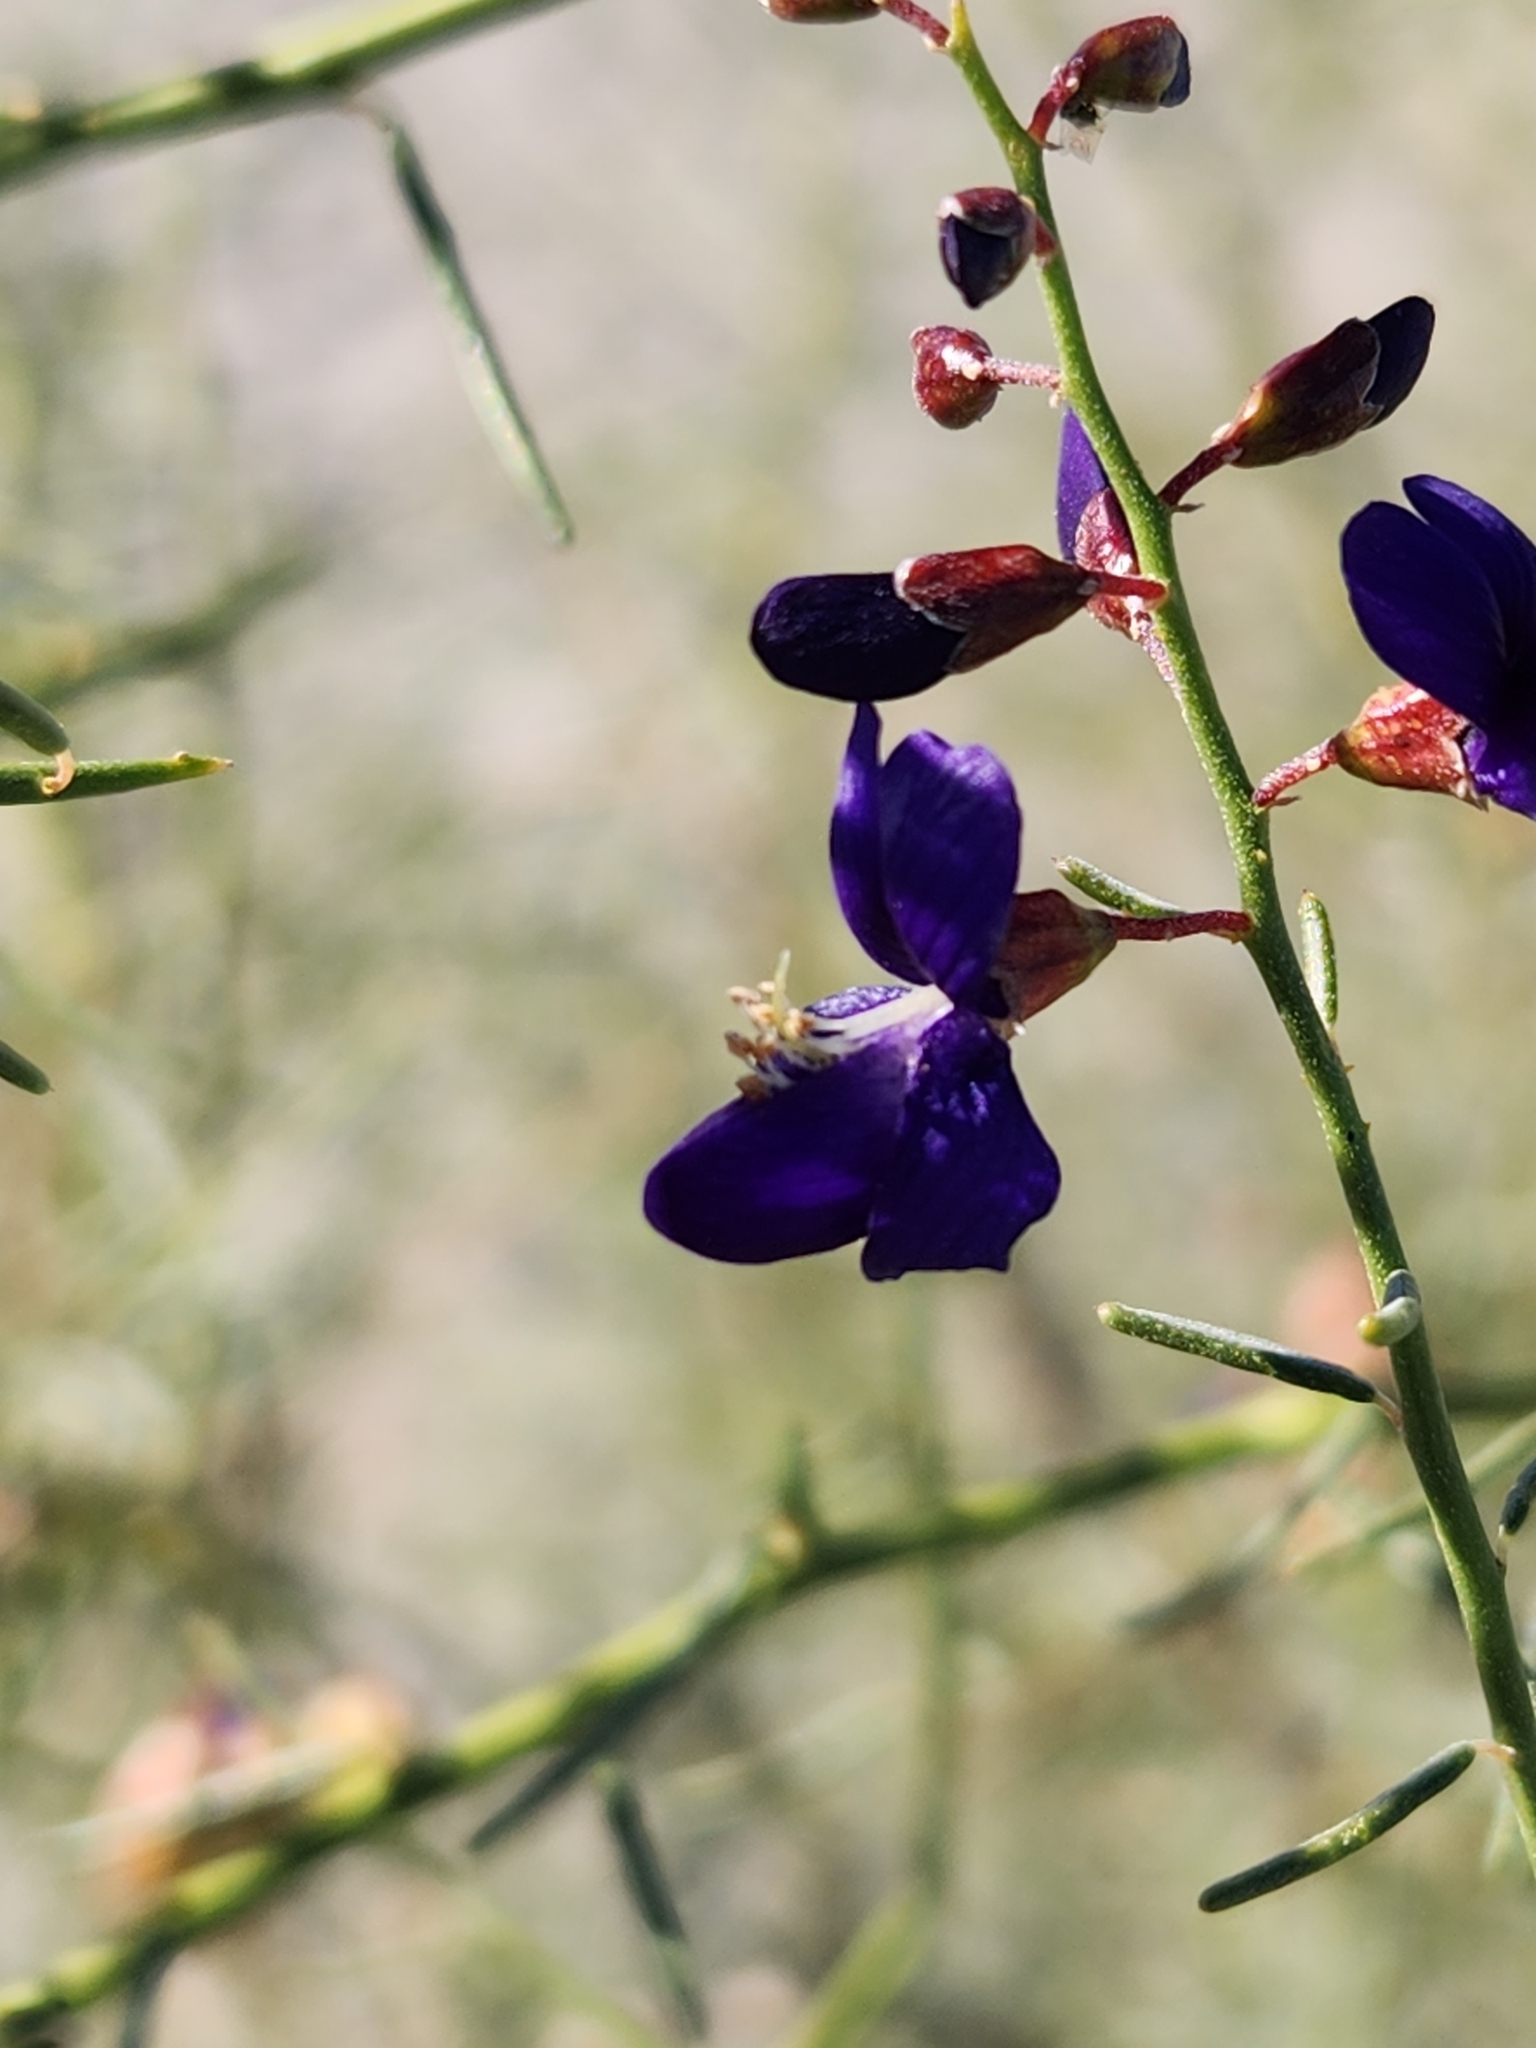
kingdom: Plantae
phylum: Tracheophyta
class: Magnoliopsida
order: Fabales
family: Fabaceae
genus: Psorothamnus
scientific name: Psorothamnus schottii
